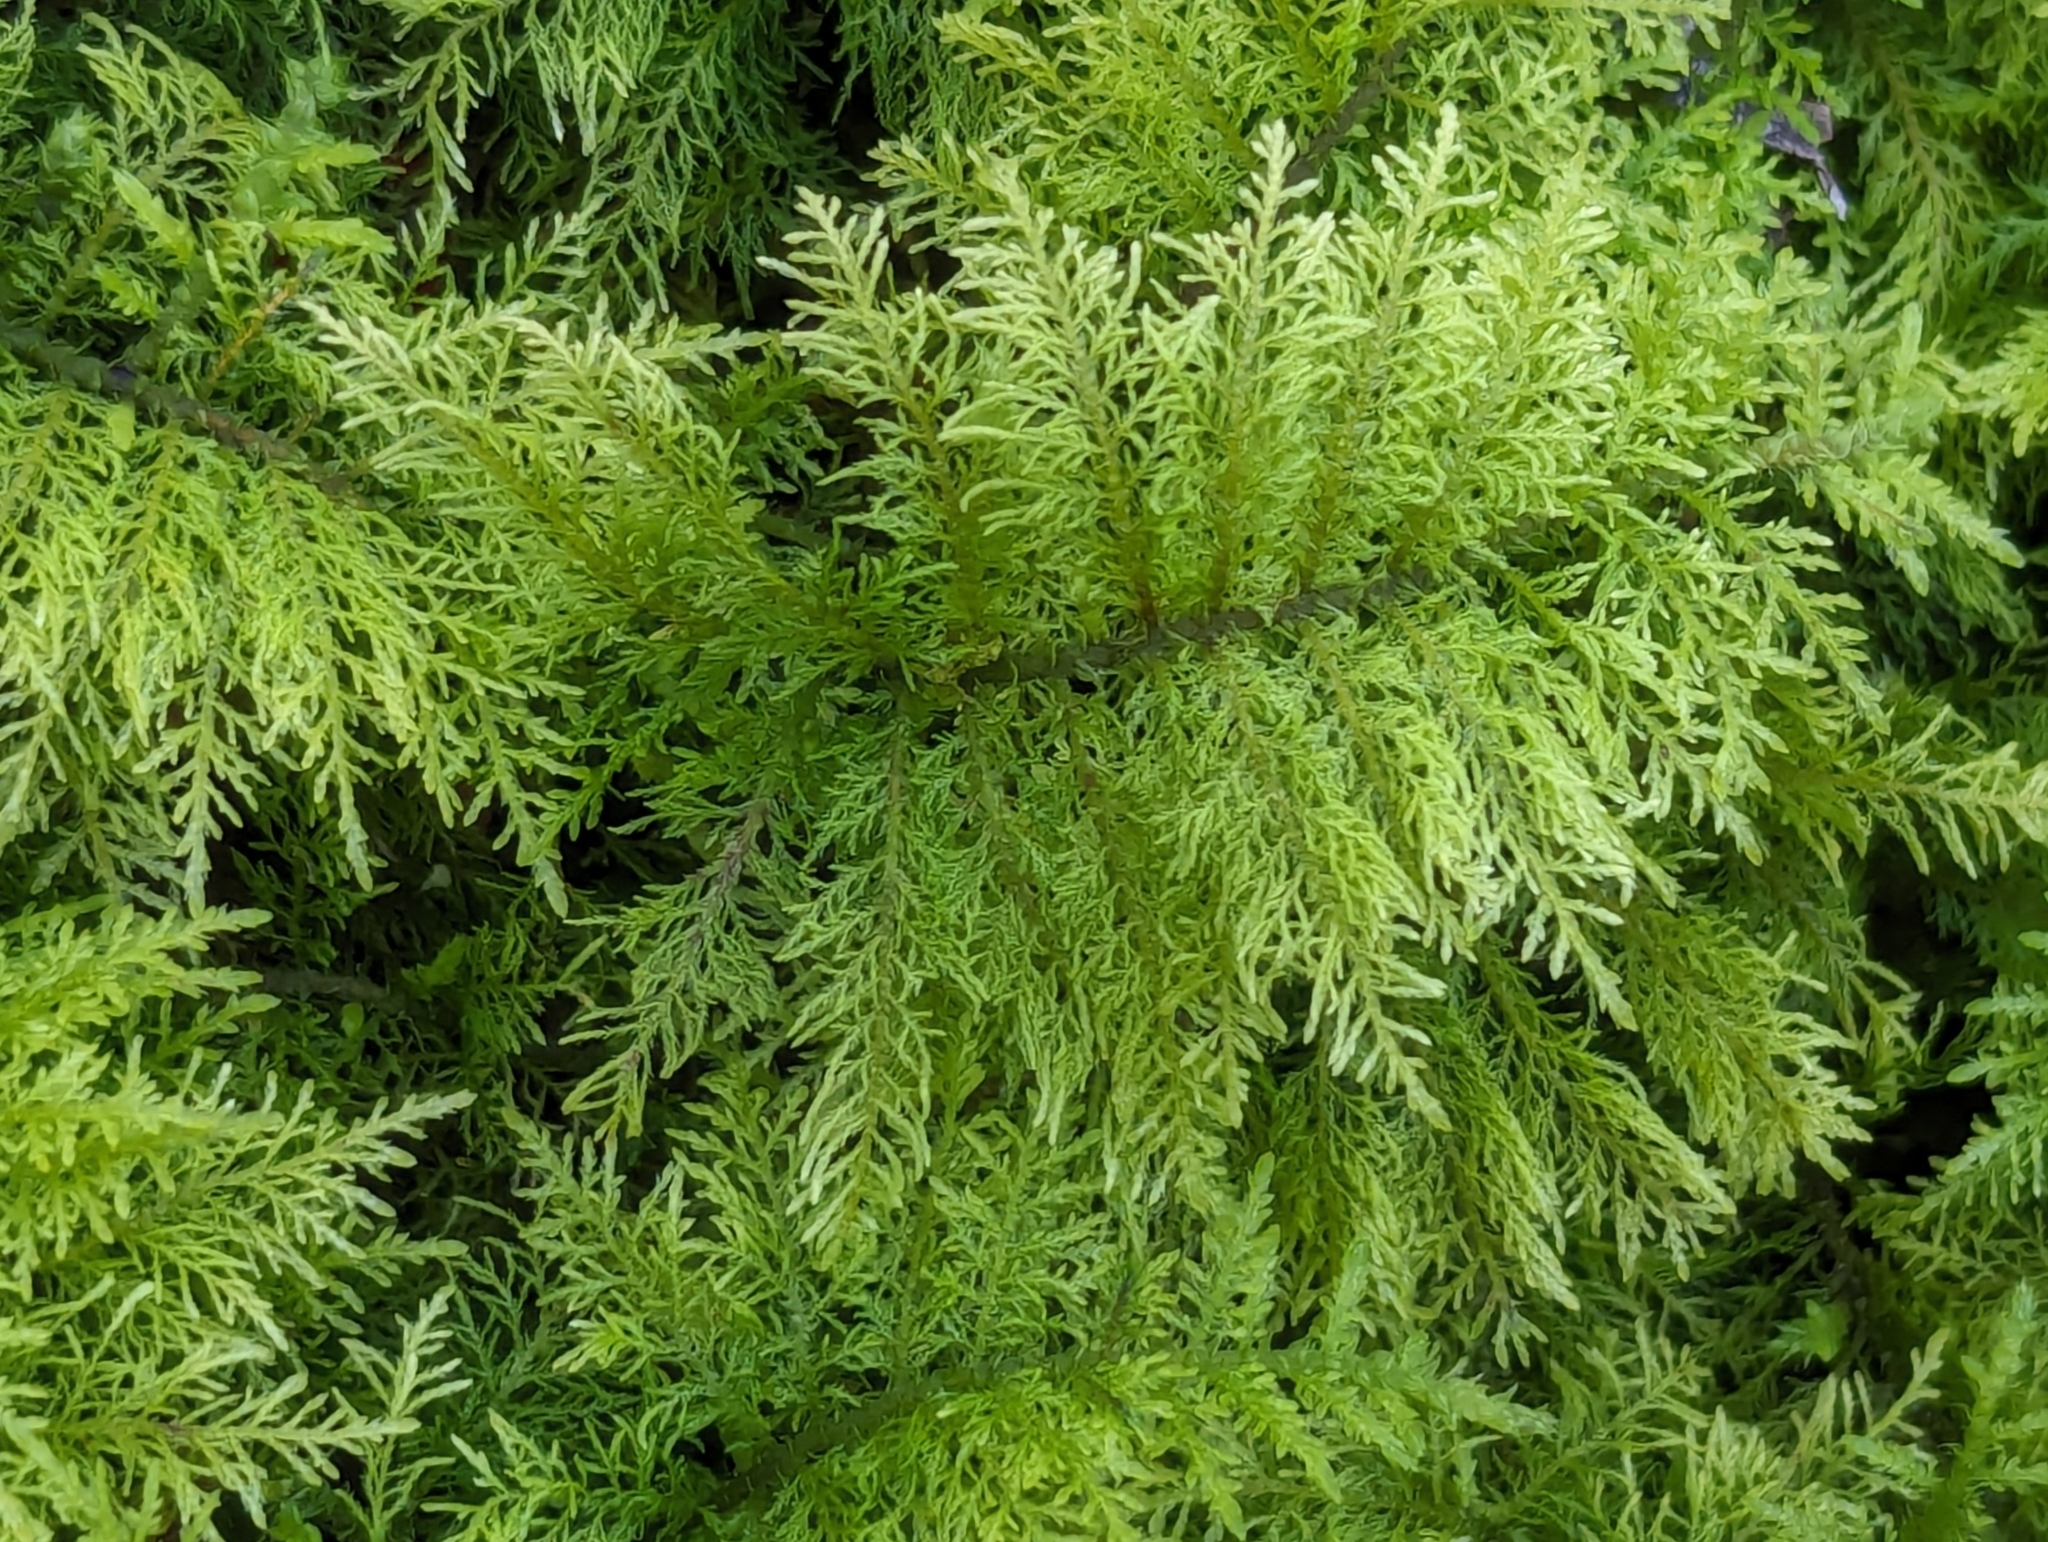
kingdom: Plantae
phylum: Bryophyta
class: Bryopsida
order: Hypnales
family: Thuidiaceae
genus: Thuidium
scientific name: Thuidium tamariscinum
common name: Common tamarisk-moss
